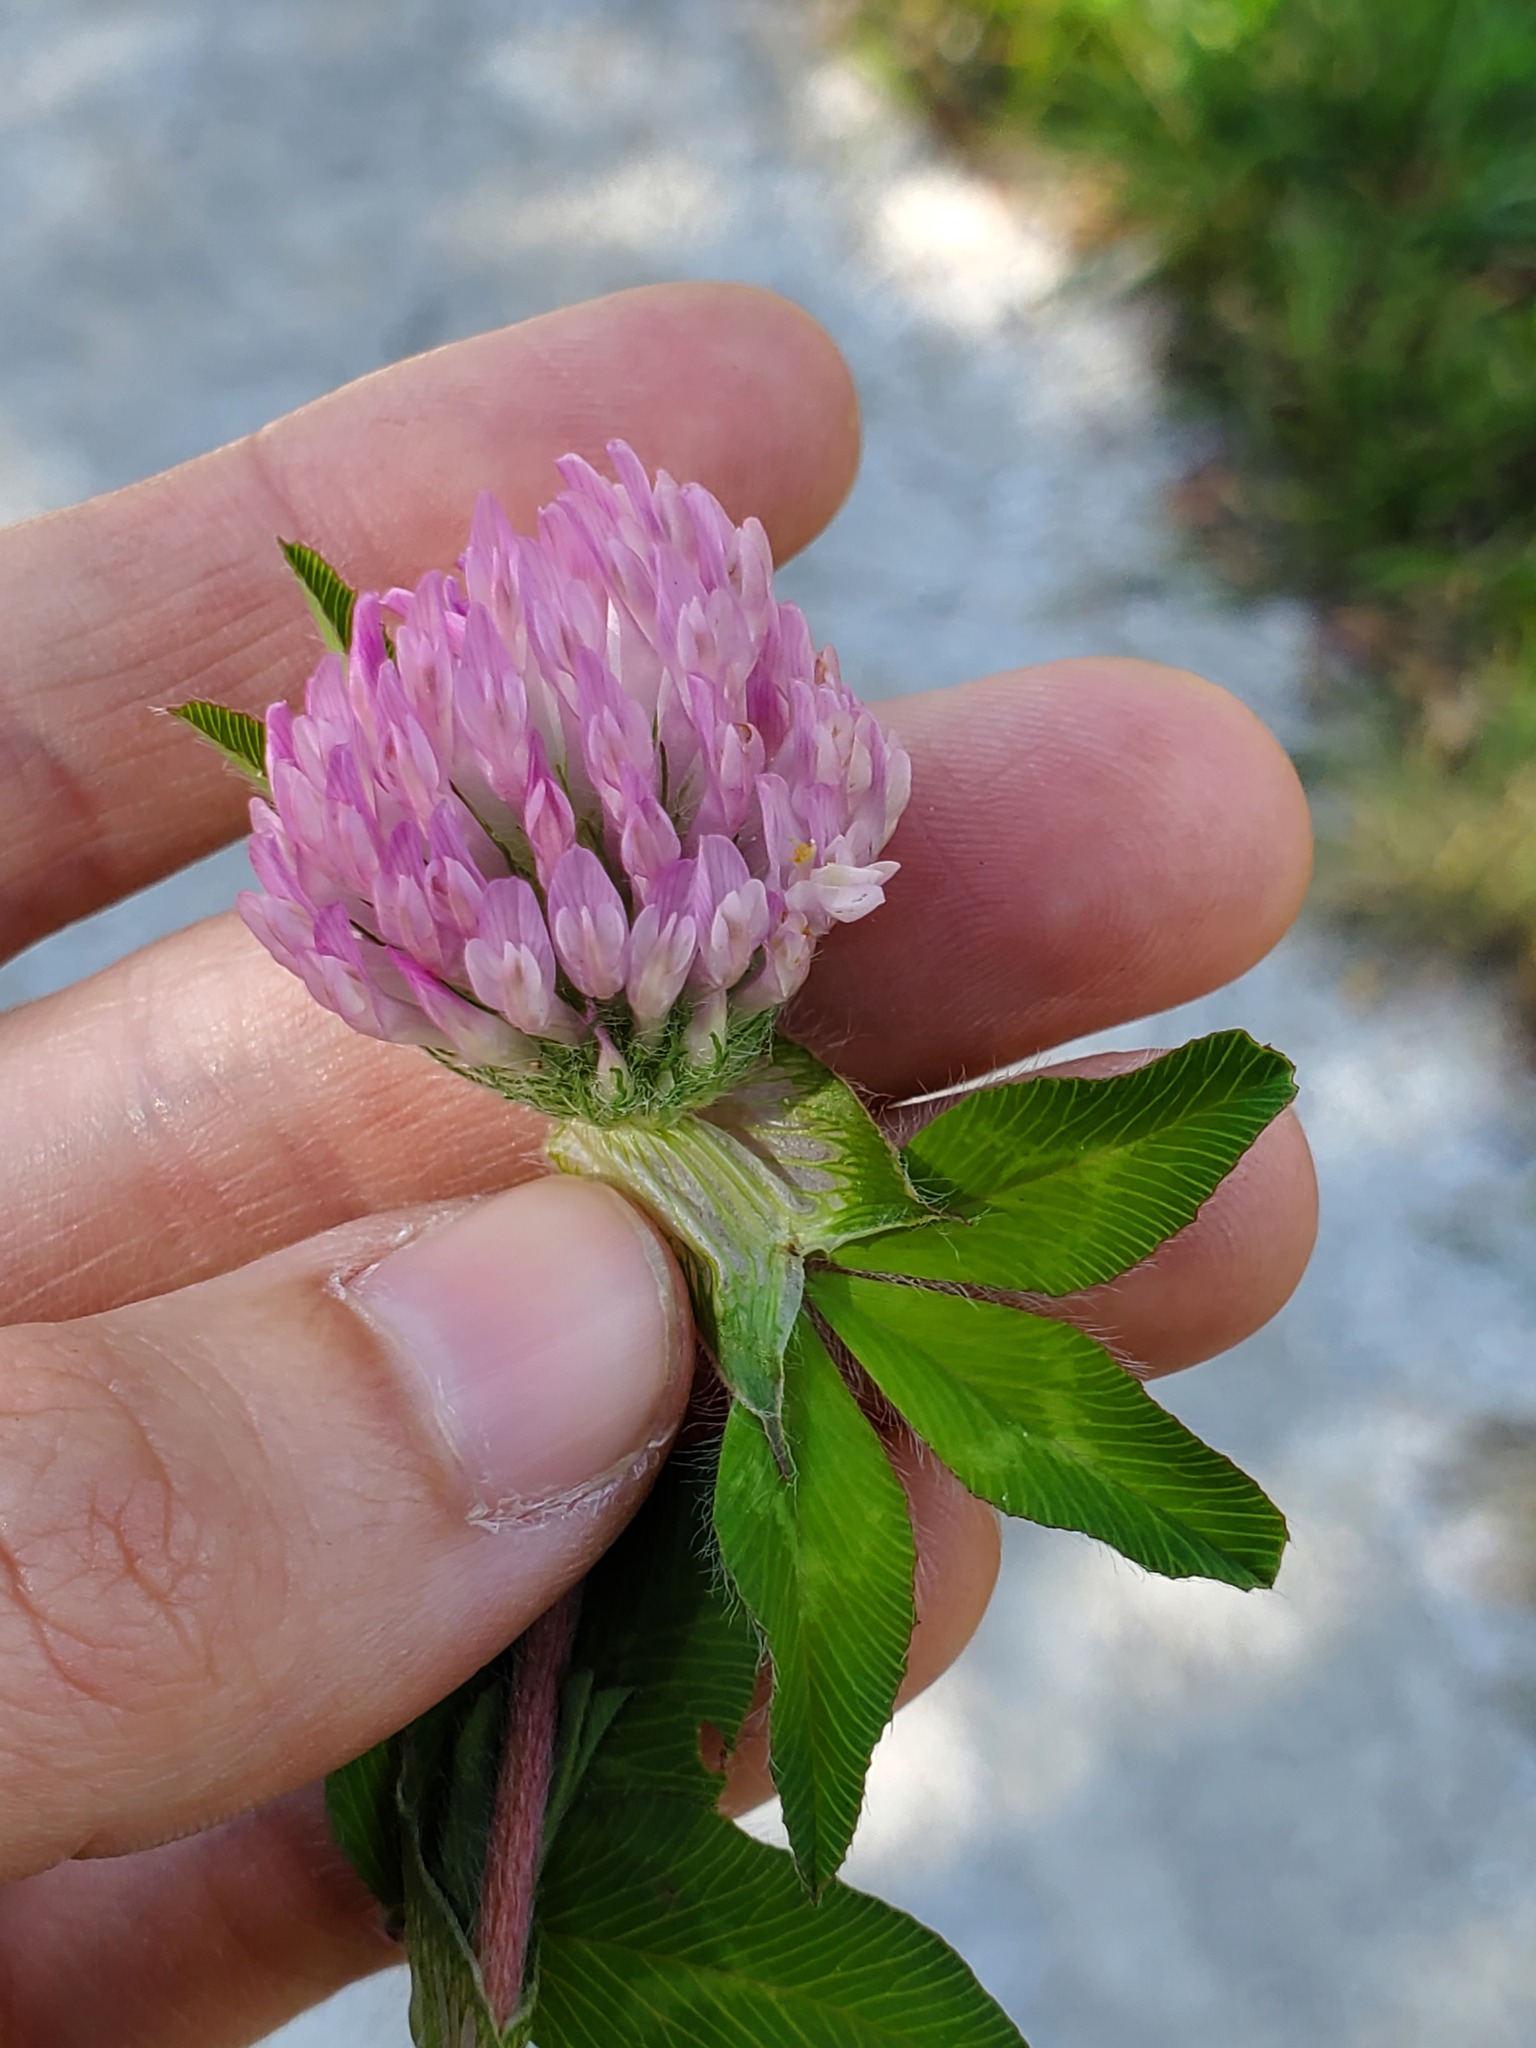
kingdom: Plantae
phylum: Tracheophyta
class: Magnoliopsida
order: Fabales
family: Fabaceae
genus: Trifolium
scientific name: Trifolium pratense
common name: Red clover
